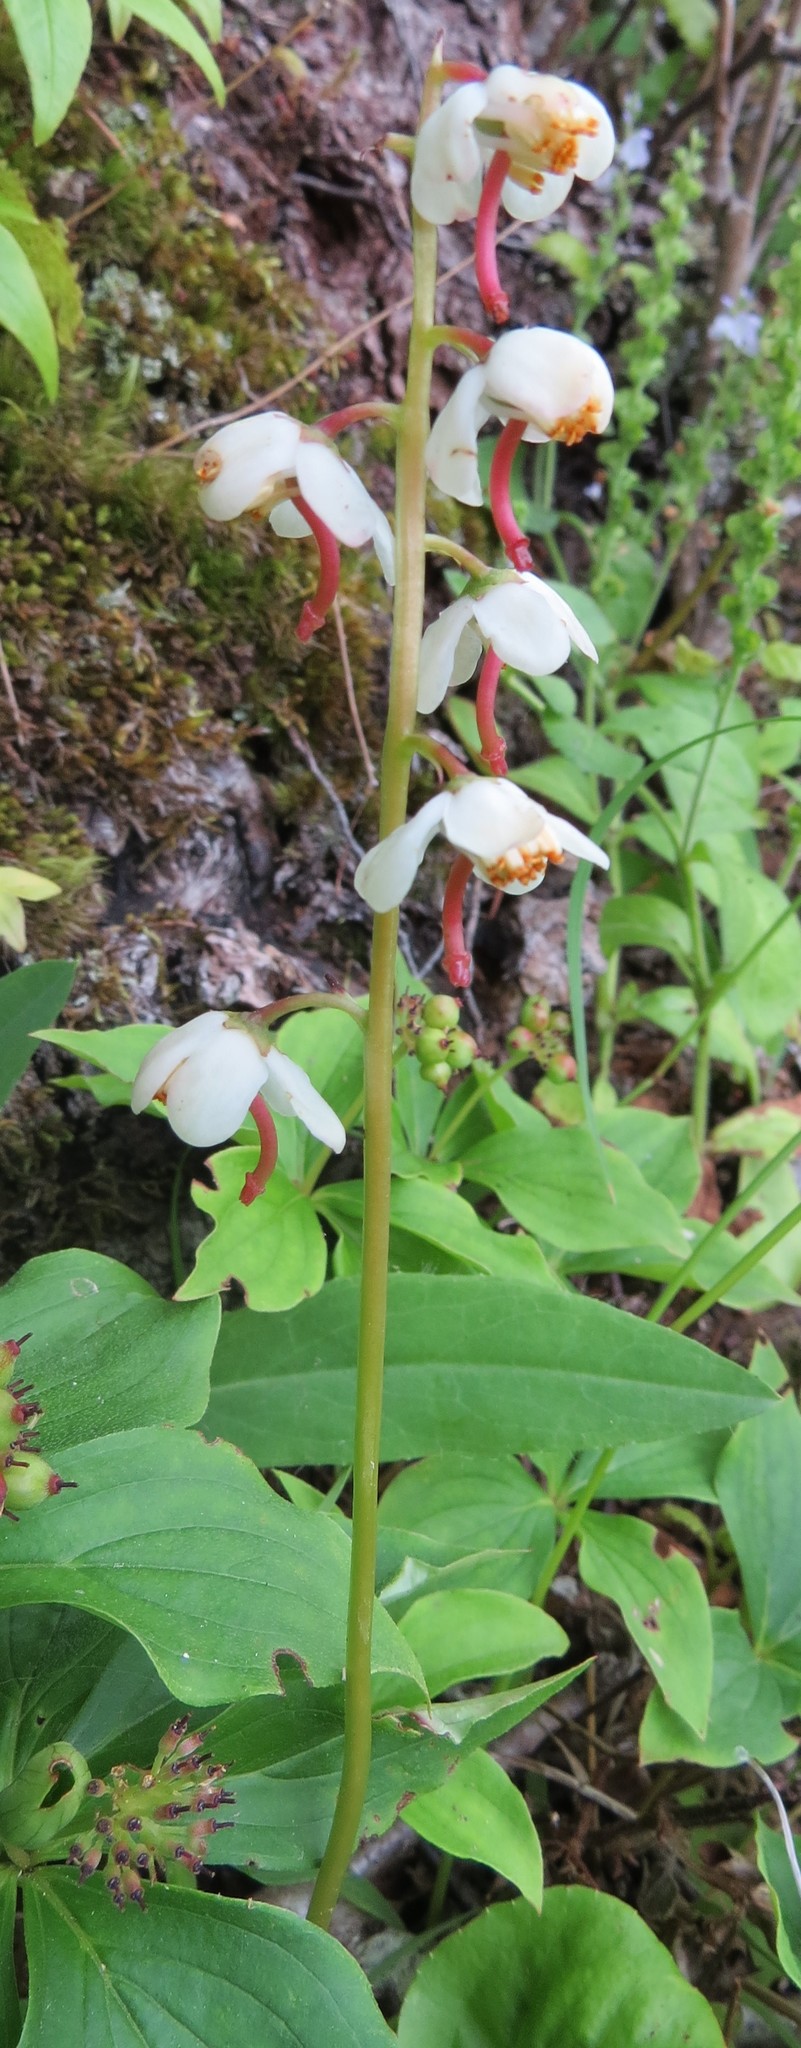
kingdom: Plantae
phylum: Tracheophyta
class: Magnoliopsida
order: Ericales
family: Ericaceae
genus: Pyrola
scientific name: Pyrola elliptica
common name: Shinleaf
